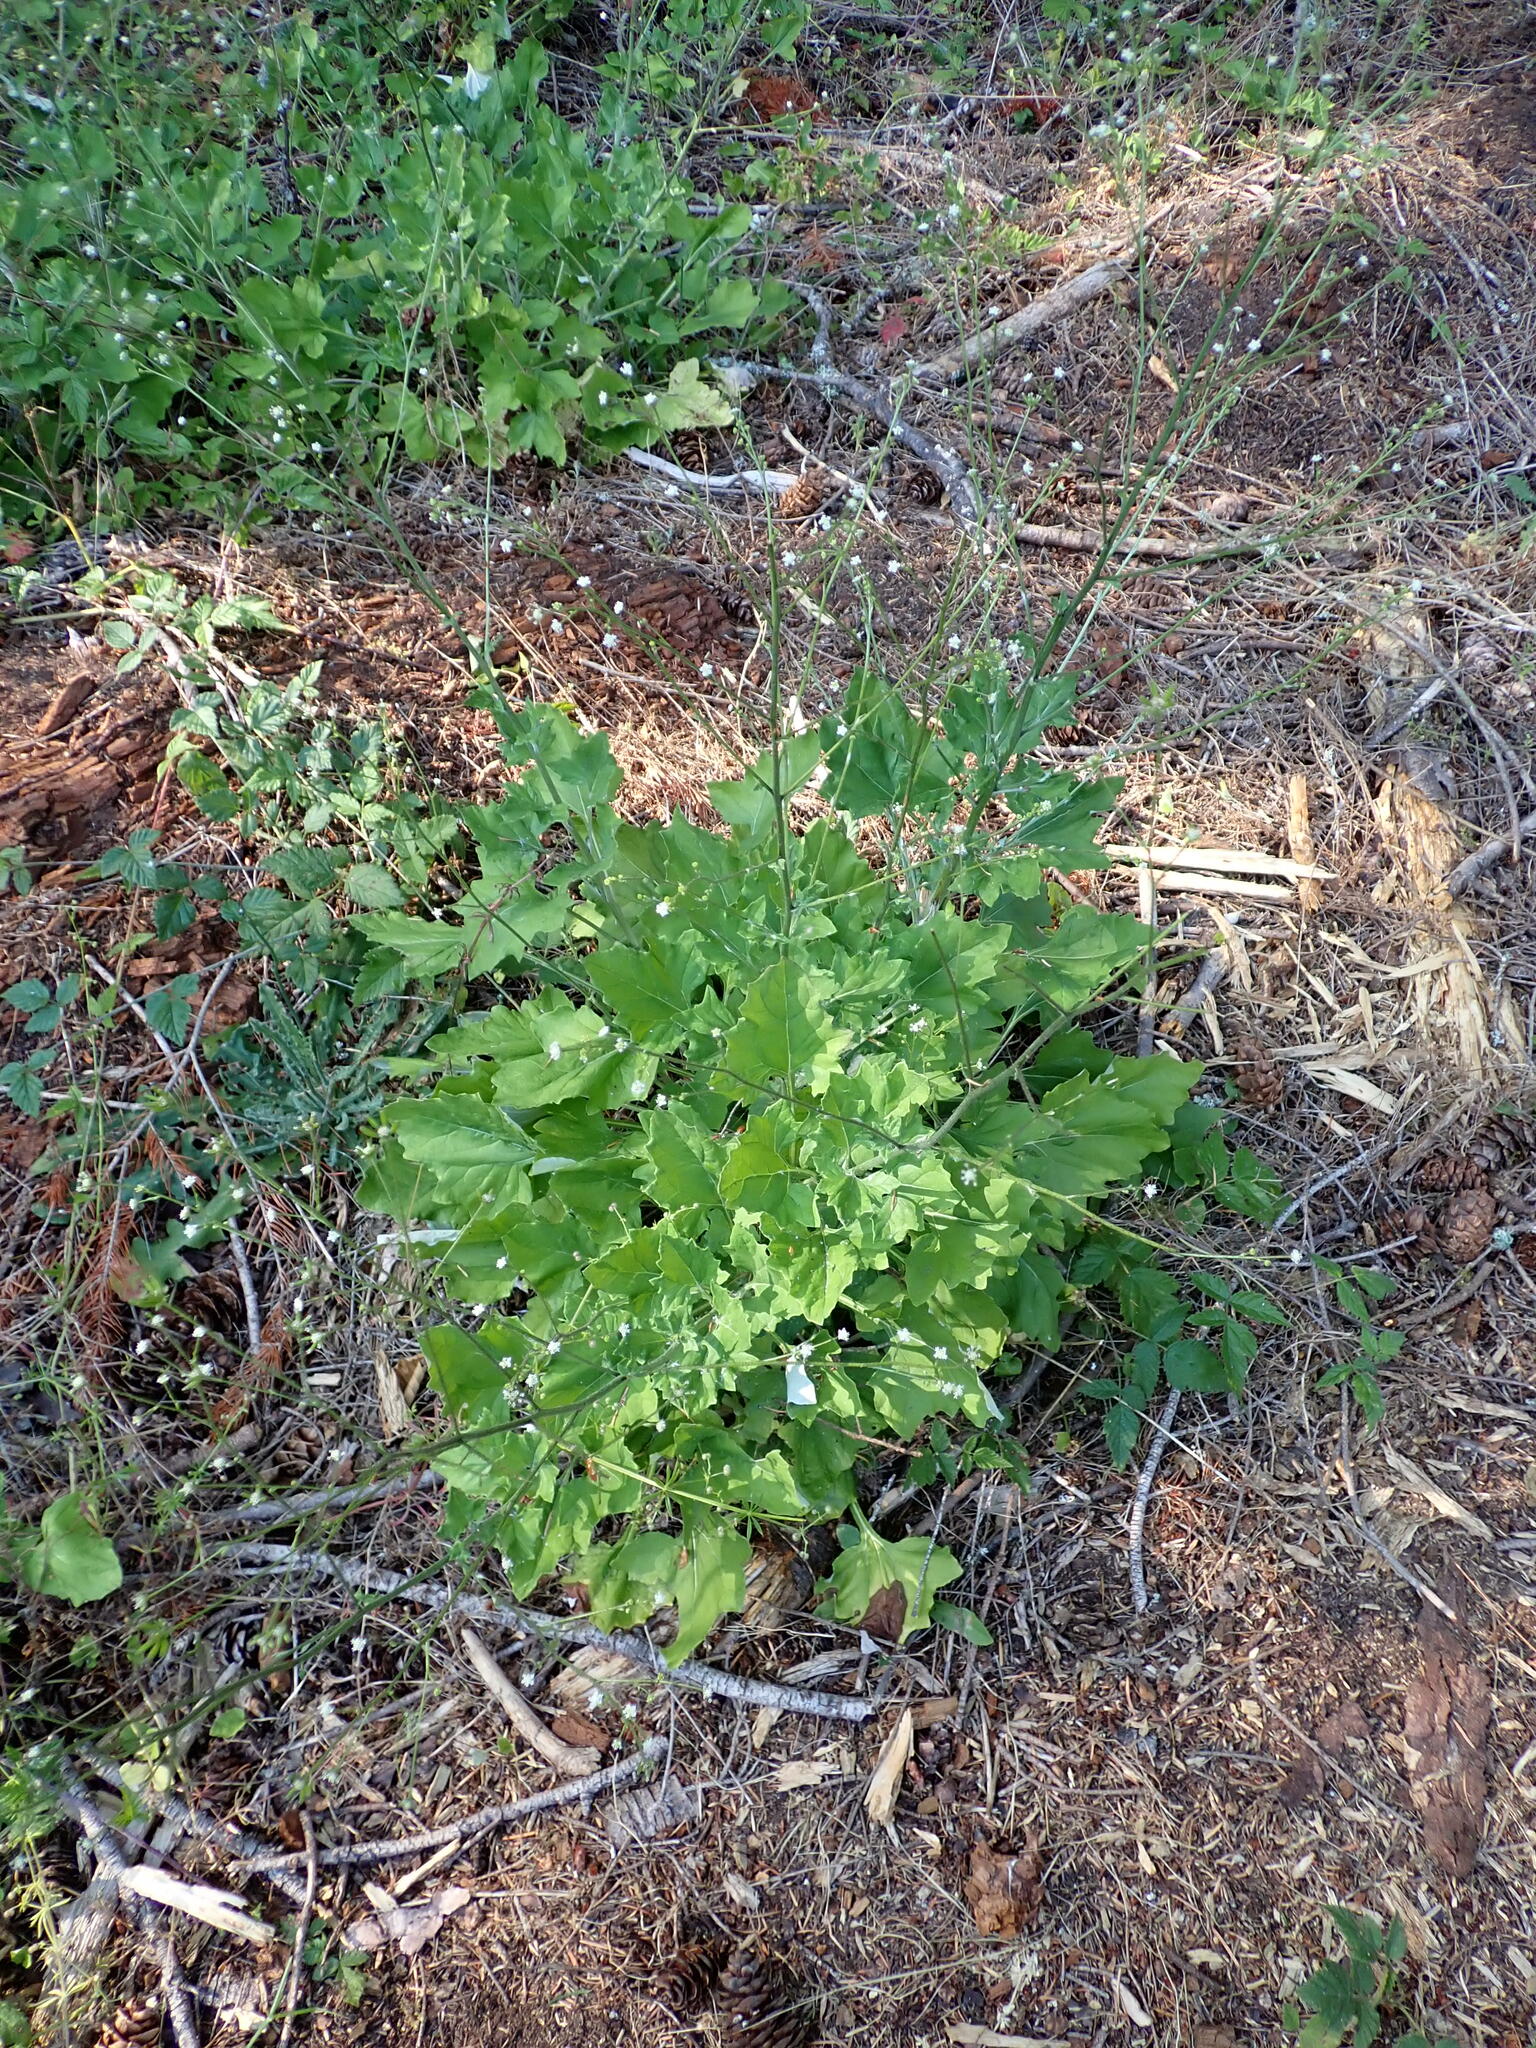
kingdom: Plantae
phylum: Tracheophyta
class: Magnoliopsida
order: Asterales
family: Asteraceae
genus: Adenocaulon
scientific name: Adenocaulon bicolor
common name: Trailplant
